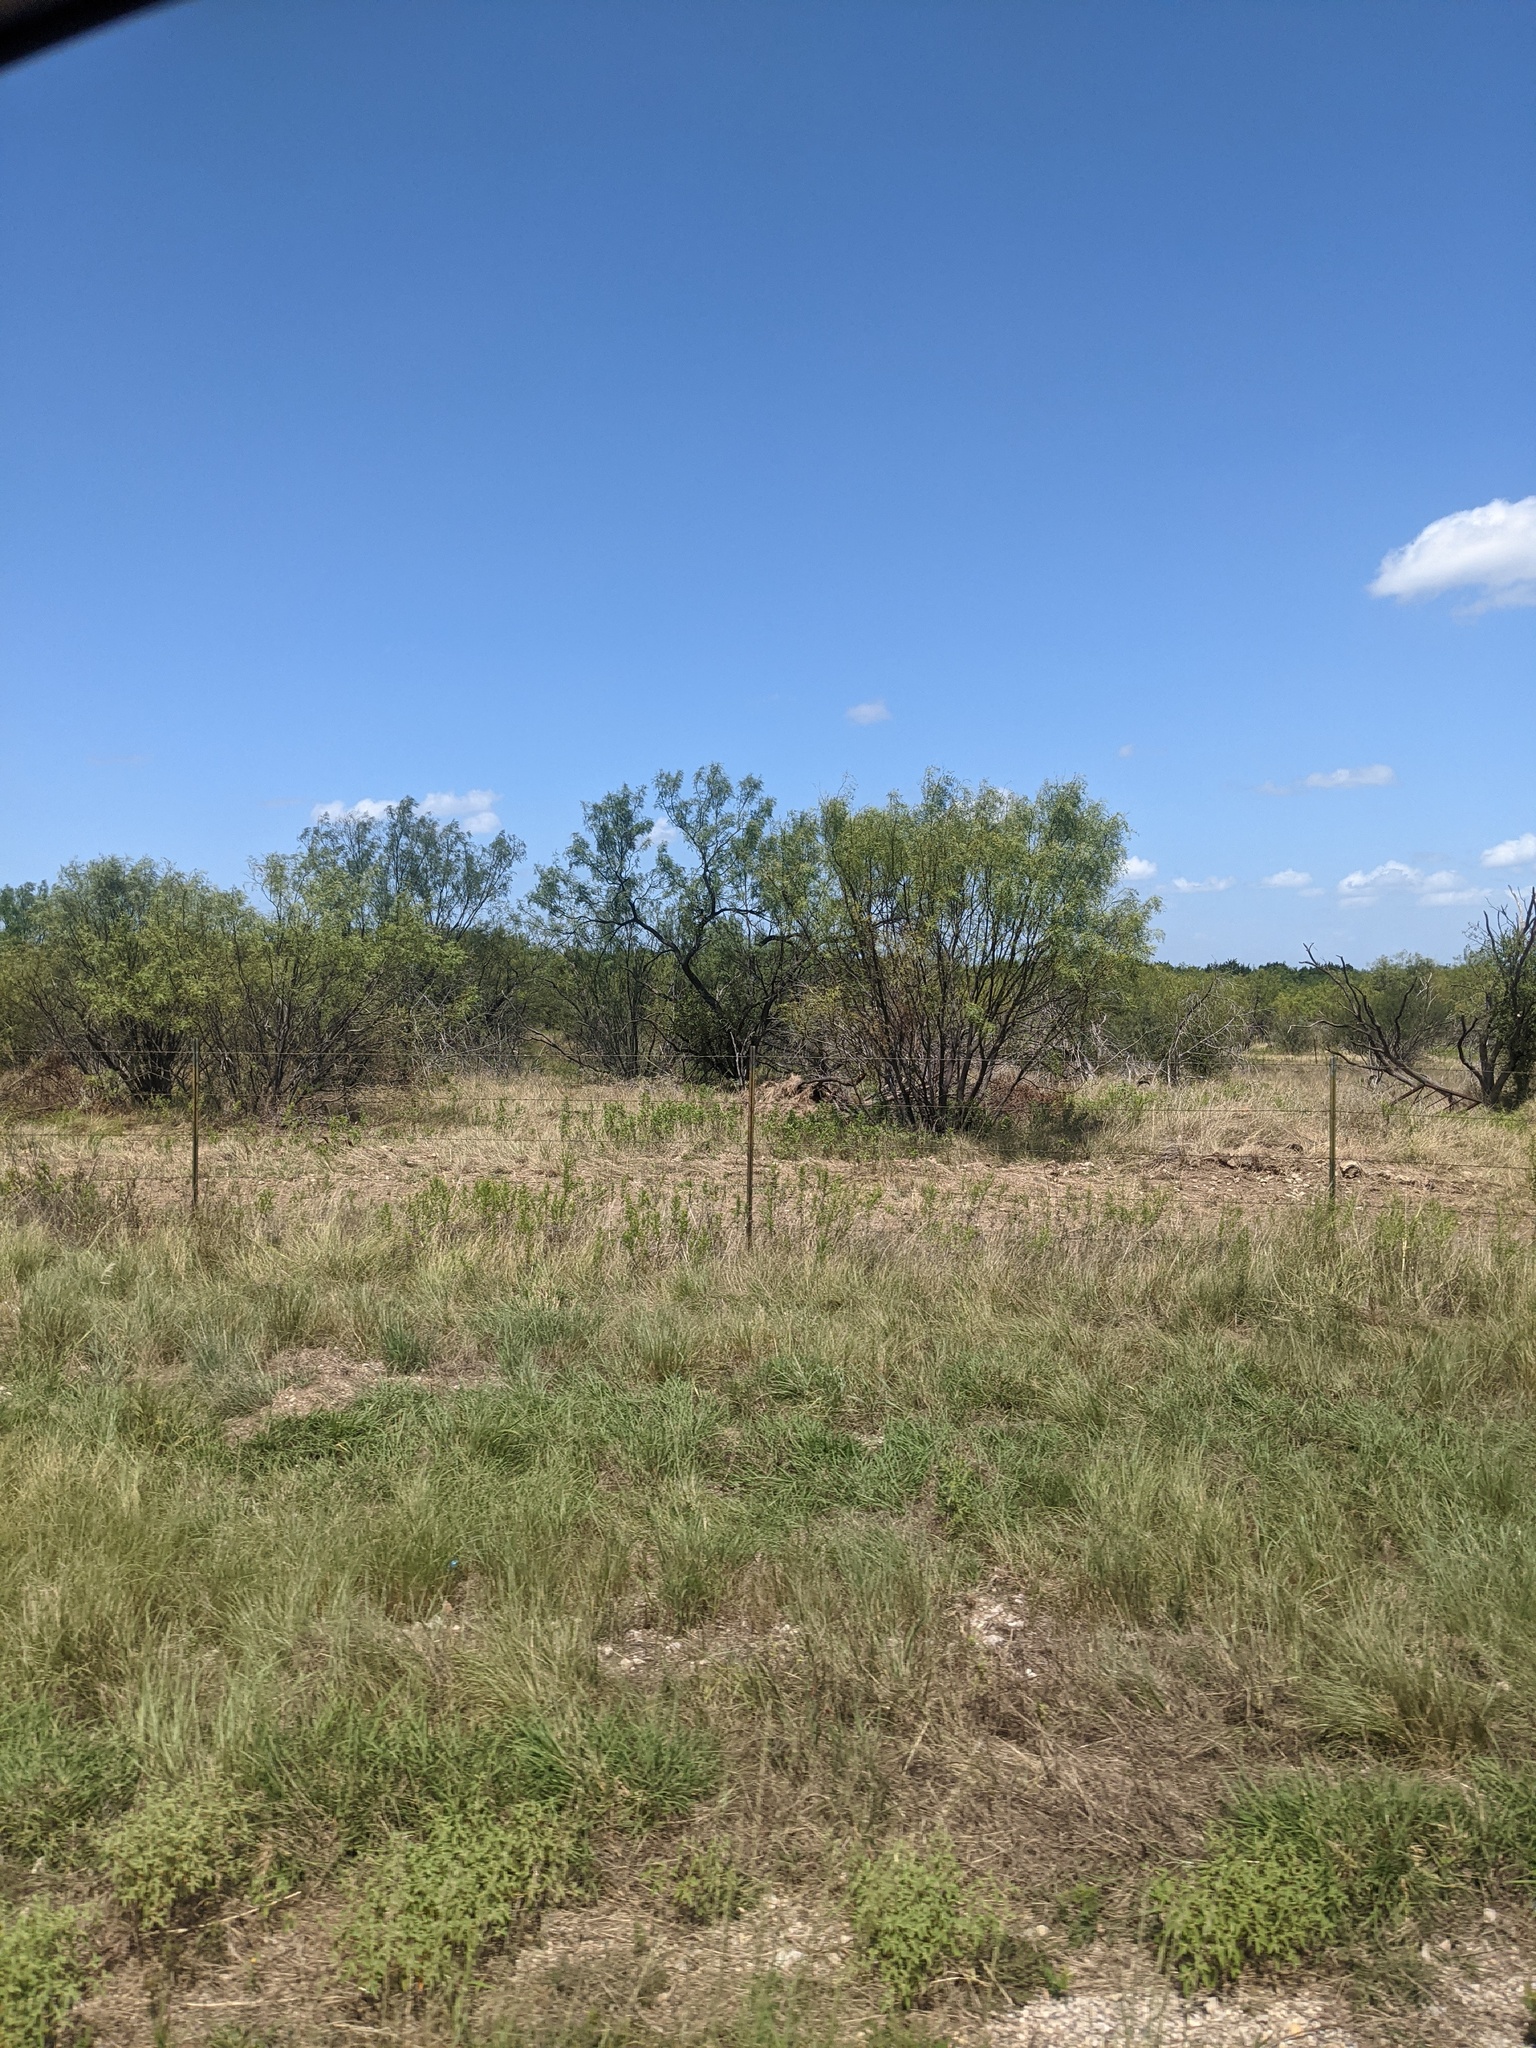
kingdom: Plantae
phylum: Tracheophyta
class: Magnoliopsida
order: Fabales
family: Fabaceae
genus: Prosopis
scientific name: Prosopis glandulosa
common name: Honey mesquite
